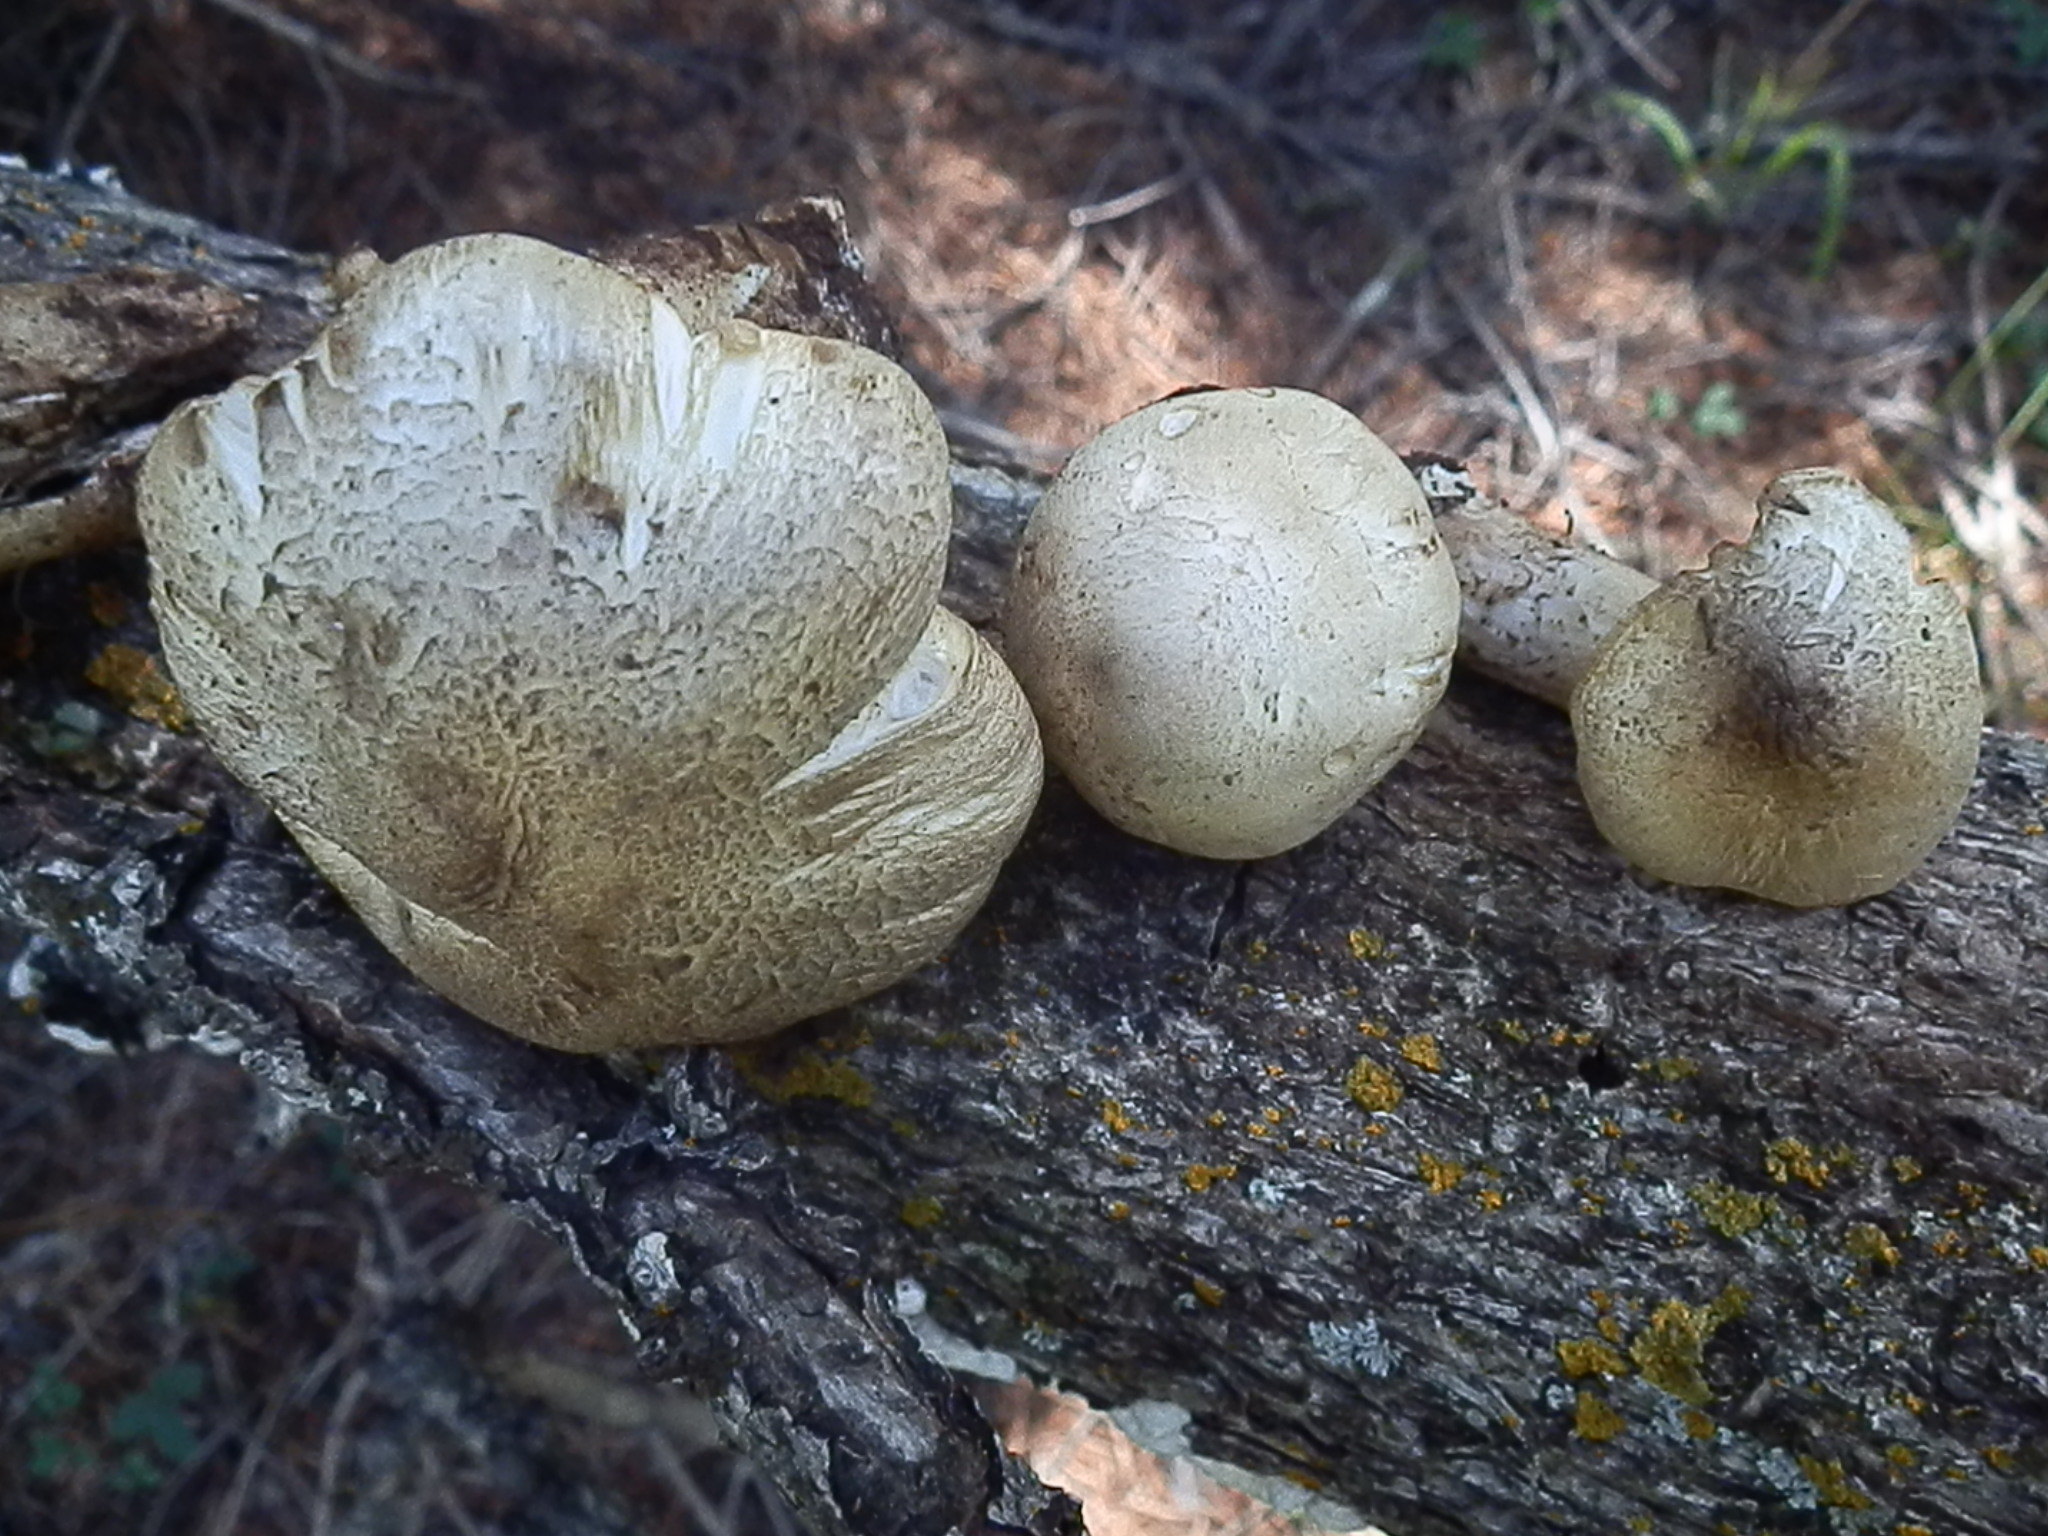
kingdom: Fungi
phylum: Basidiomycota
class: Agaricomycetes
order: Agaricales
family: Tricholomataceae
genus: Tricholoma
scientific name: Tricholoma smithii
